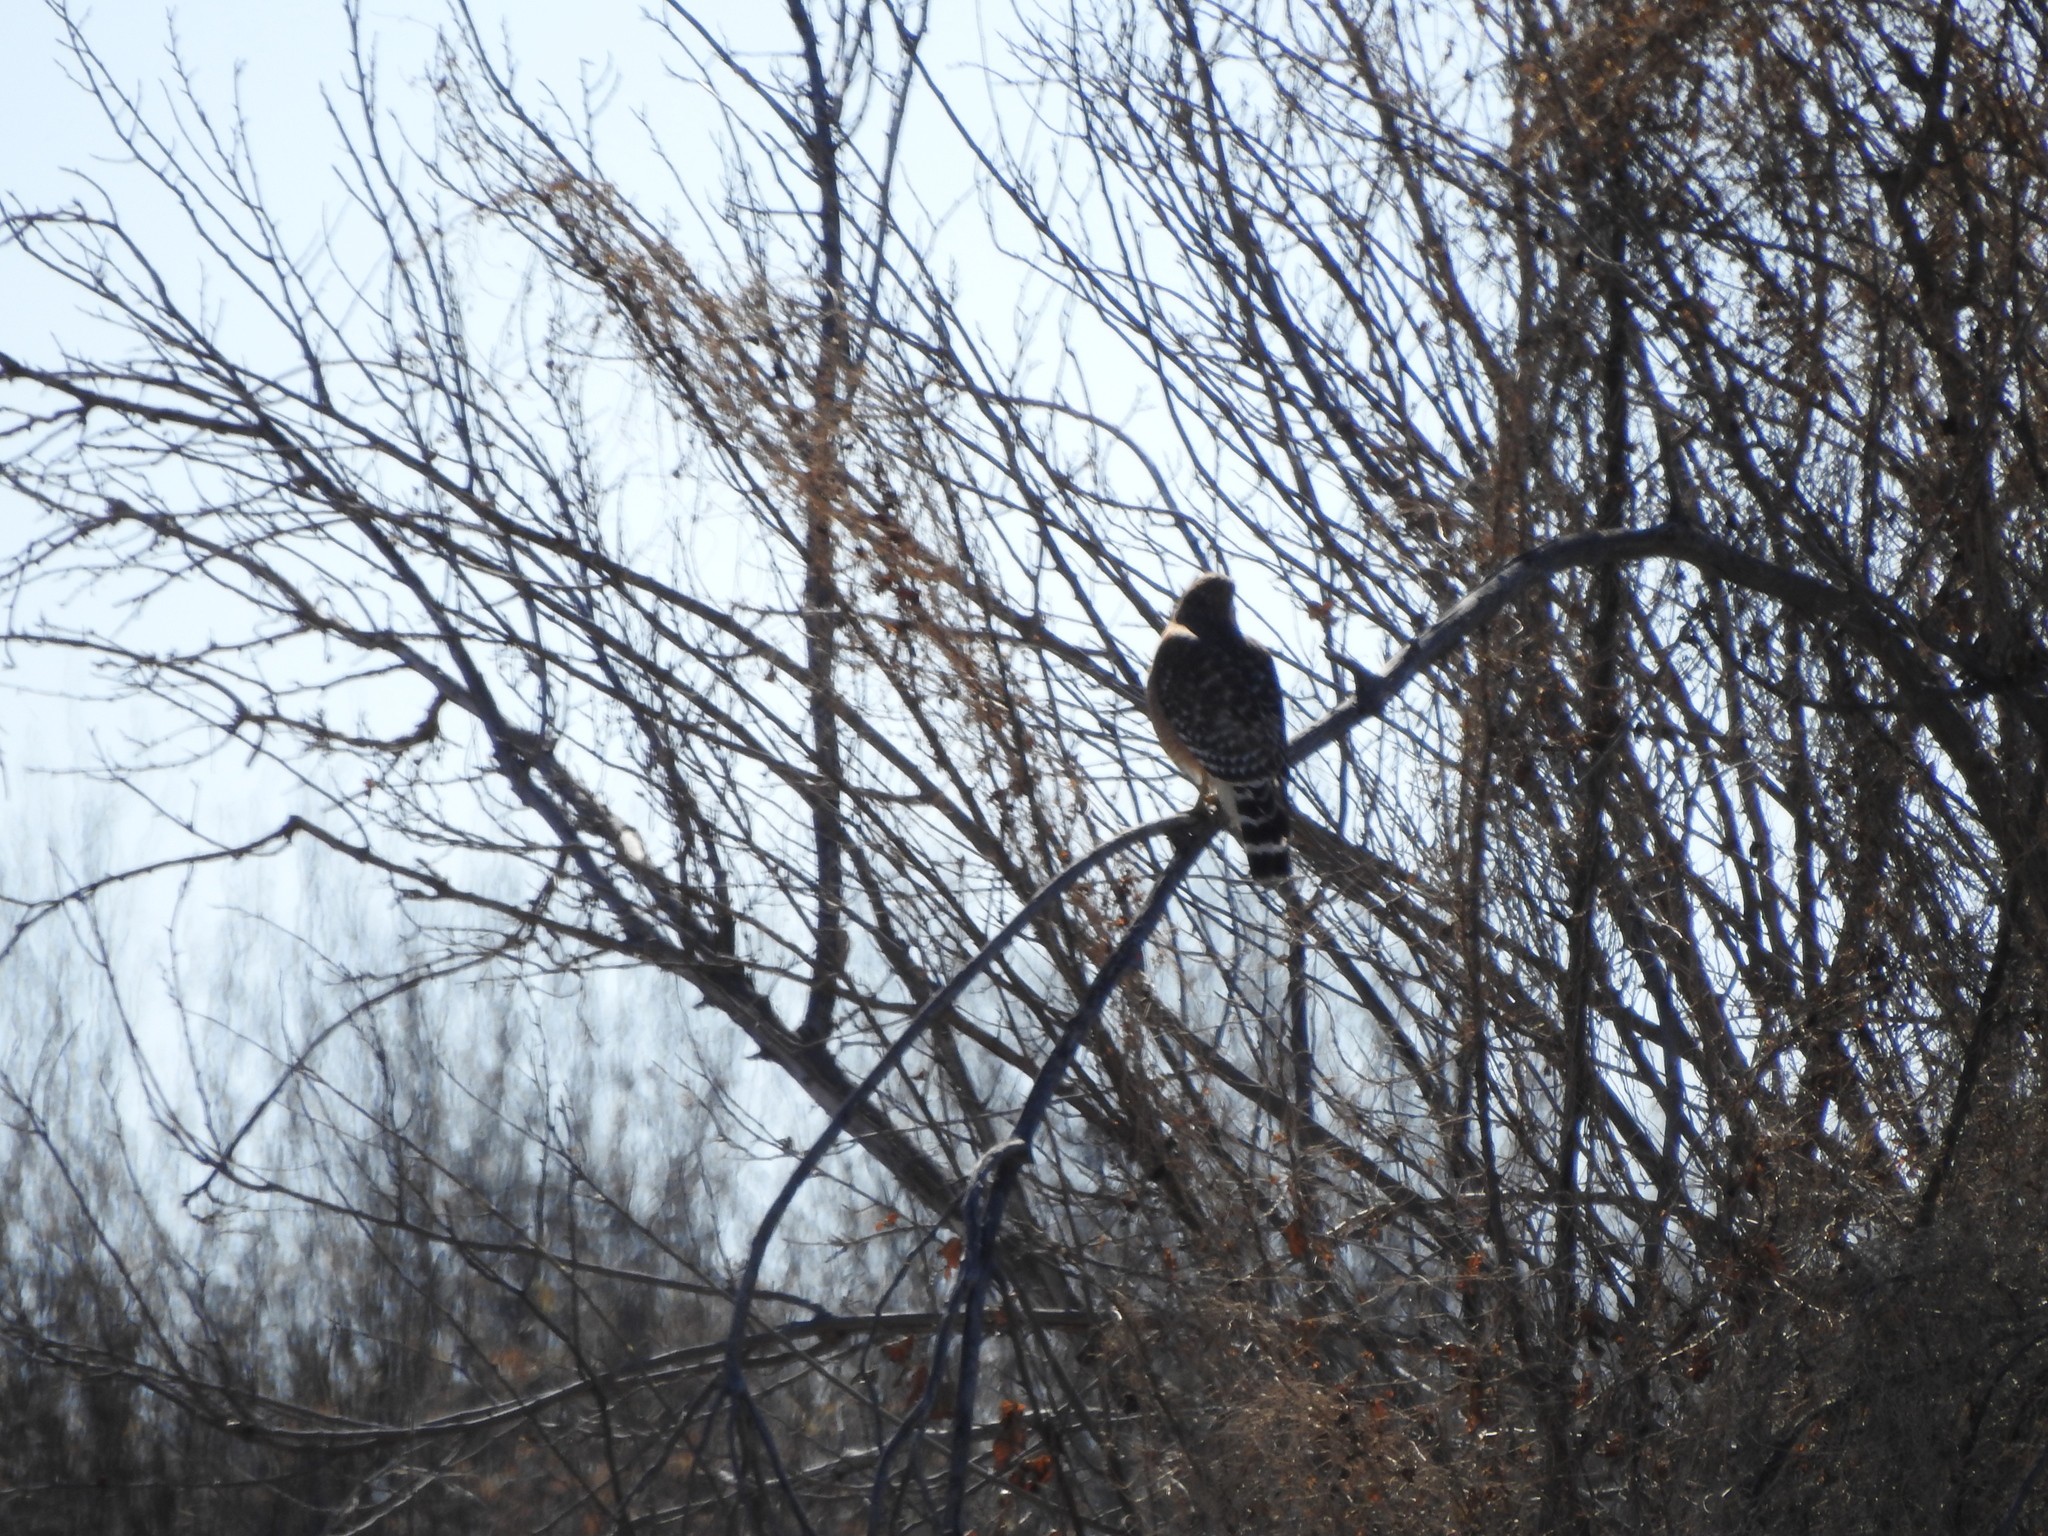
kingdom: Animalia
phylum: Chordata
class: Aves
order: Accipitriformes
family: Accipitridae
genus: Buteo
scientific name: Buteo lineatus
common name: Red-shouldered hawk
